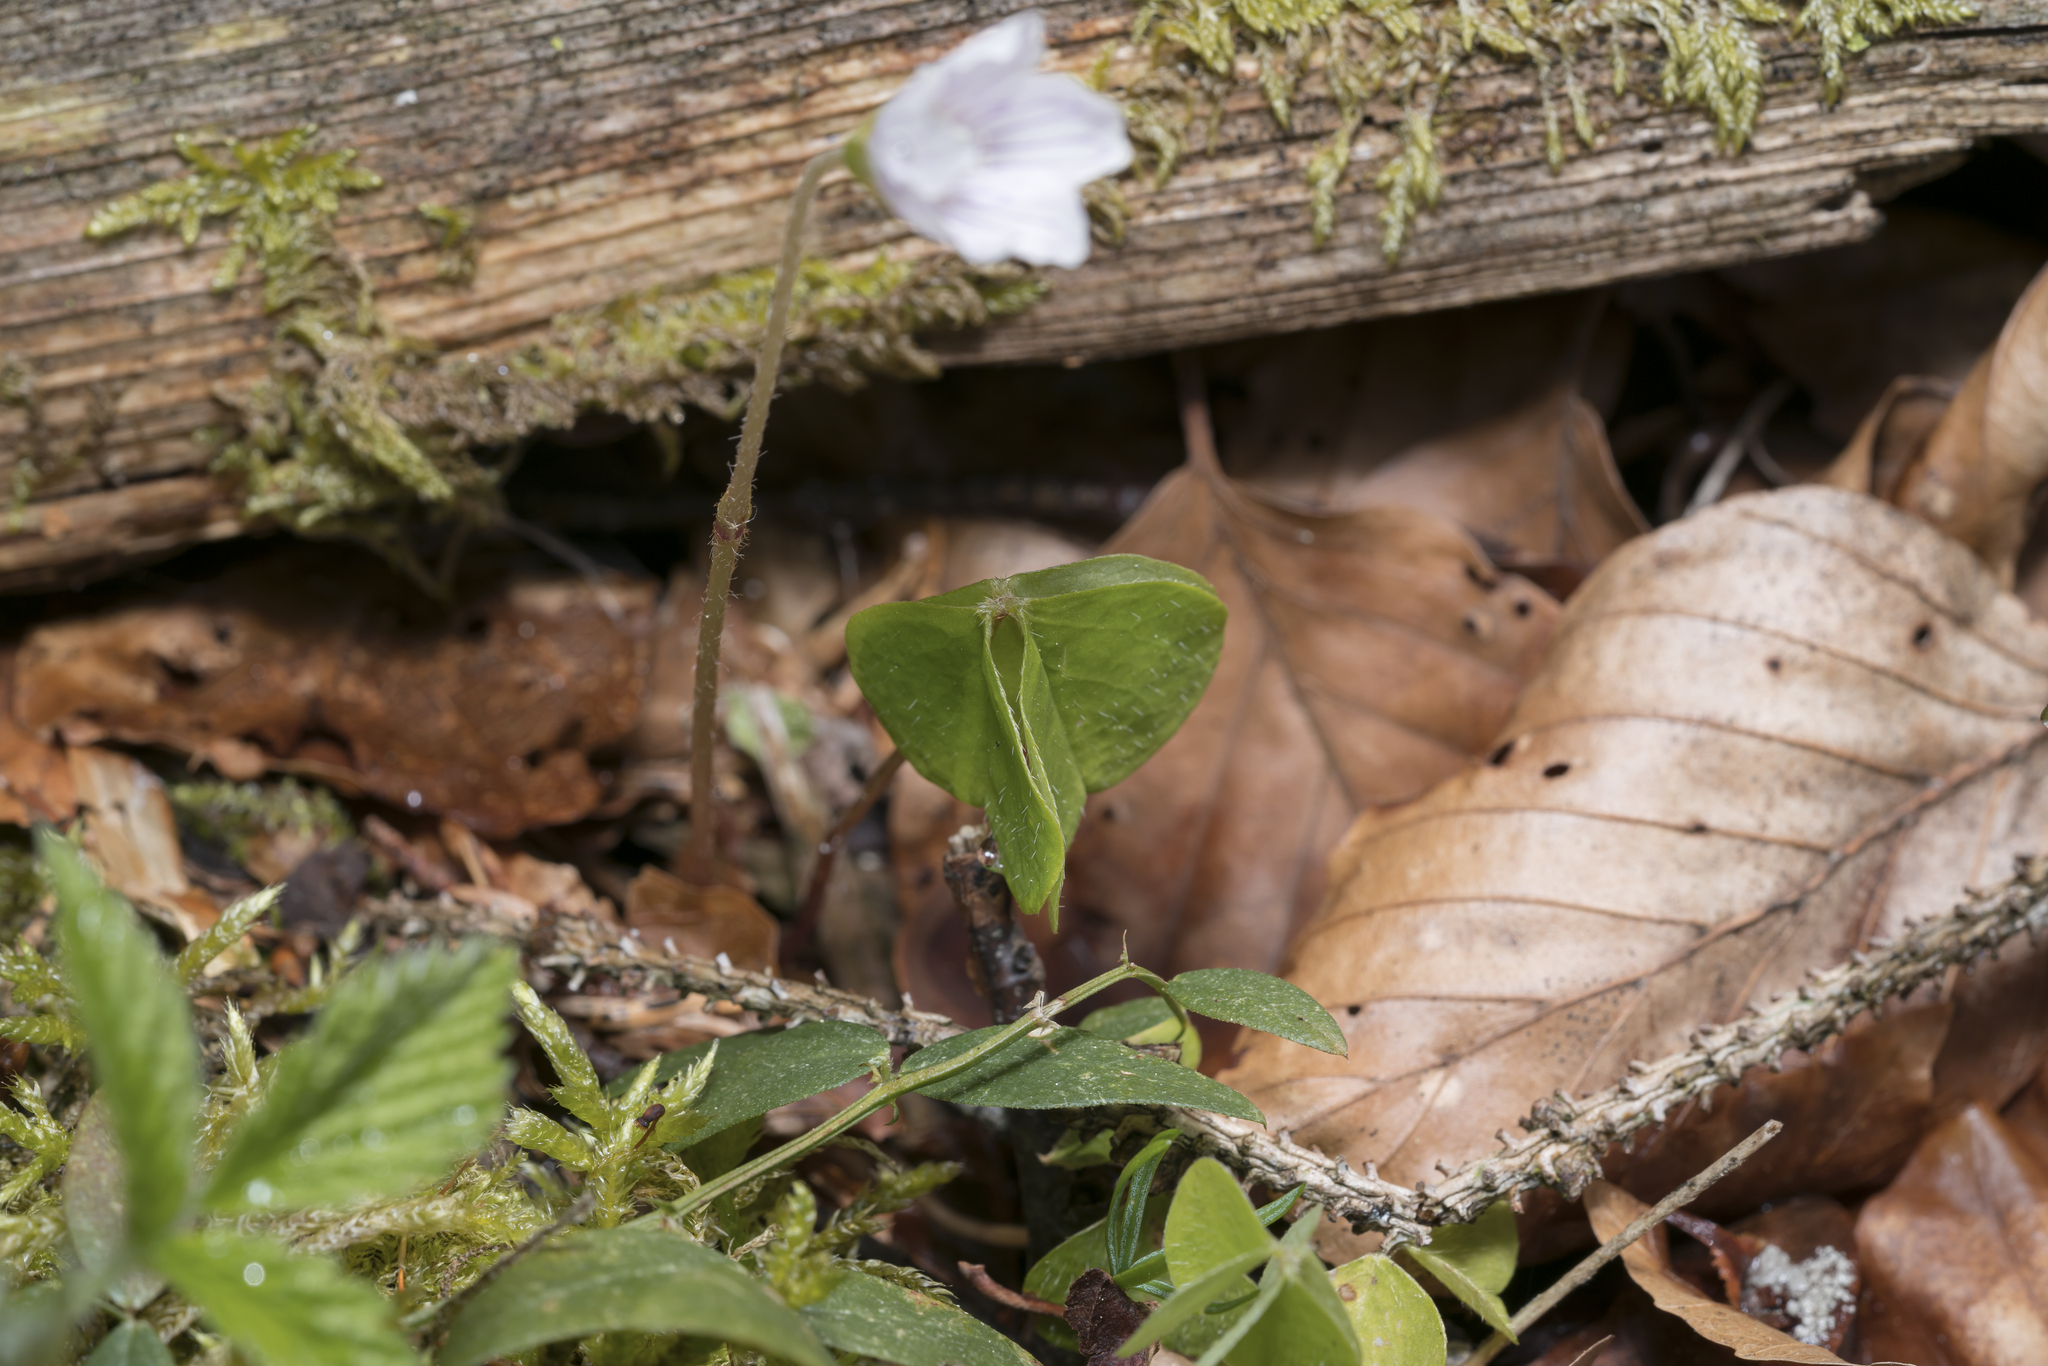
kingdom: Plantae
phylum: Tracheophyta
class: Magnoliopsida
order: Oxalidales
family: Oxalidaceae
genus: Oxalis
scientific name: Oxalis acetosella
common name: Wood-sorrel
